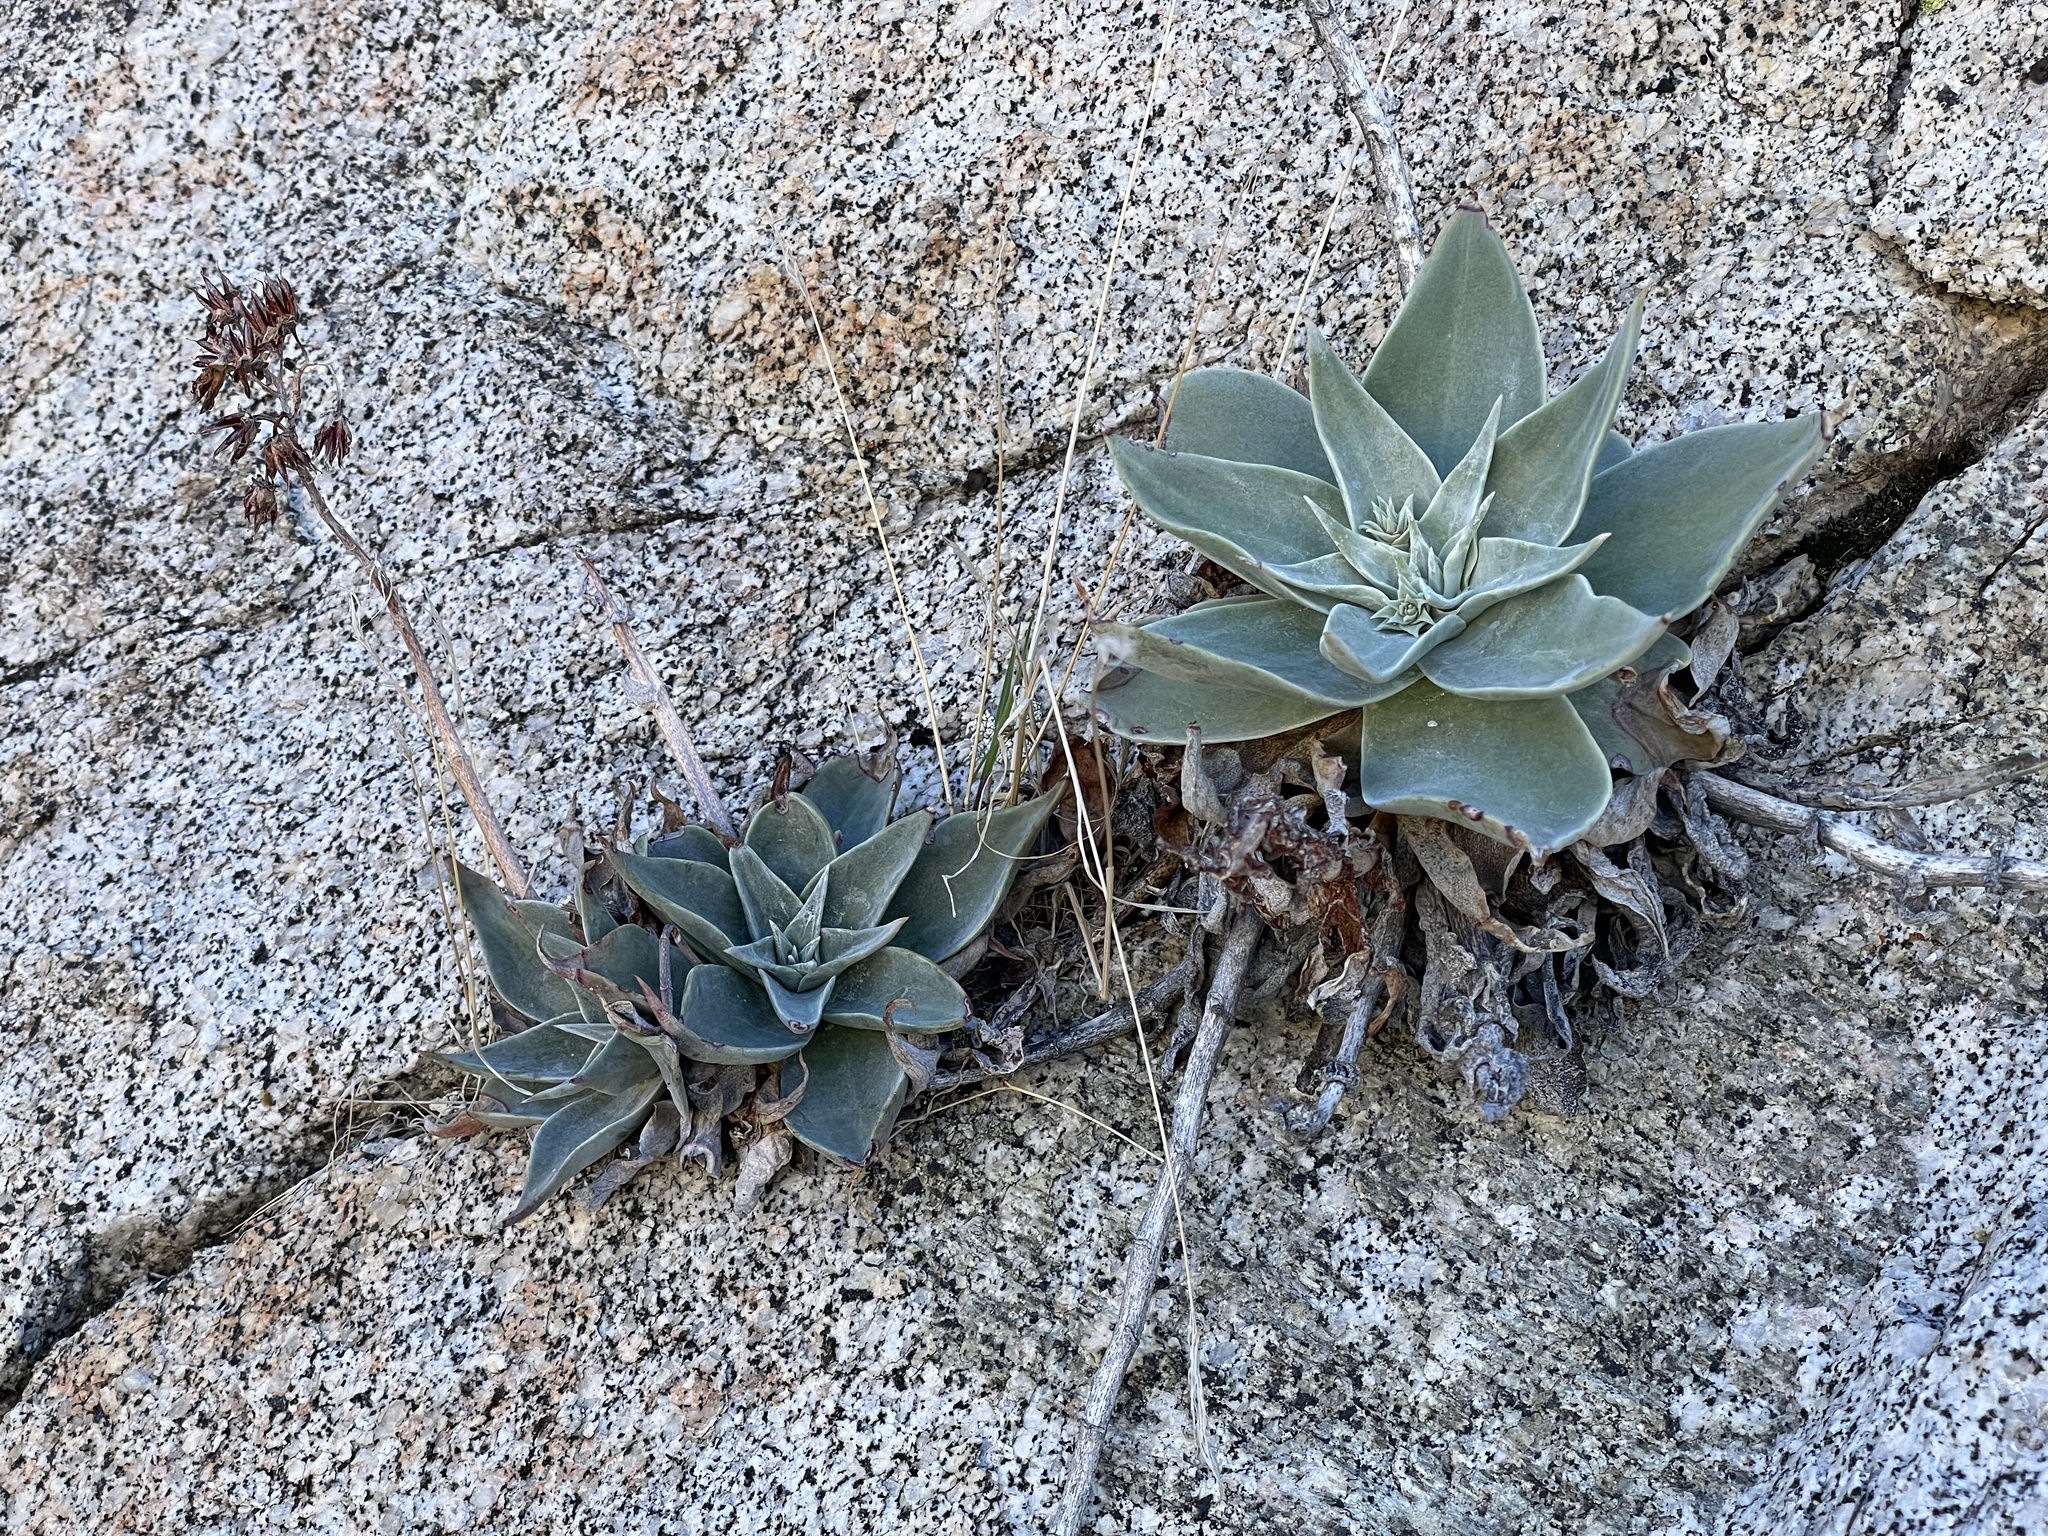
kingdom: Plantae
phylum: Tracheophyta
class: Magnoliopsida
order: Saxifragales
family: Crassulaceae
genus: Dudleya
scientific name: Dudleya arizonica
